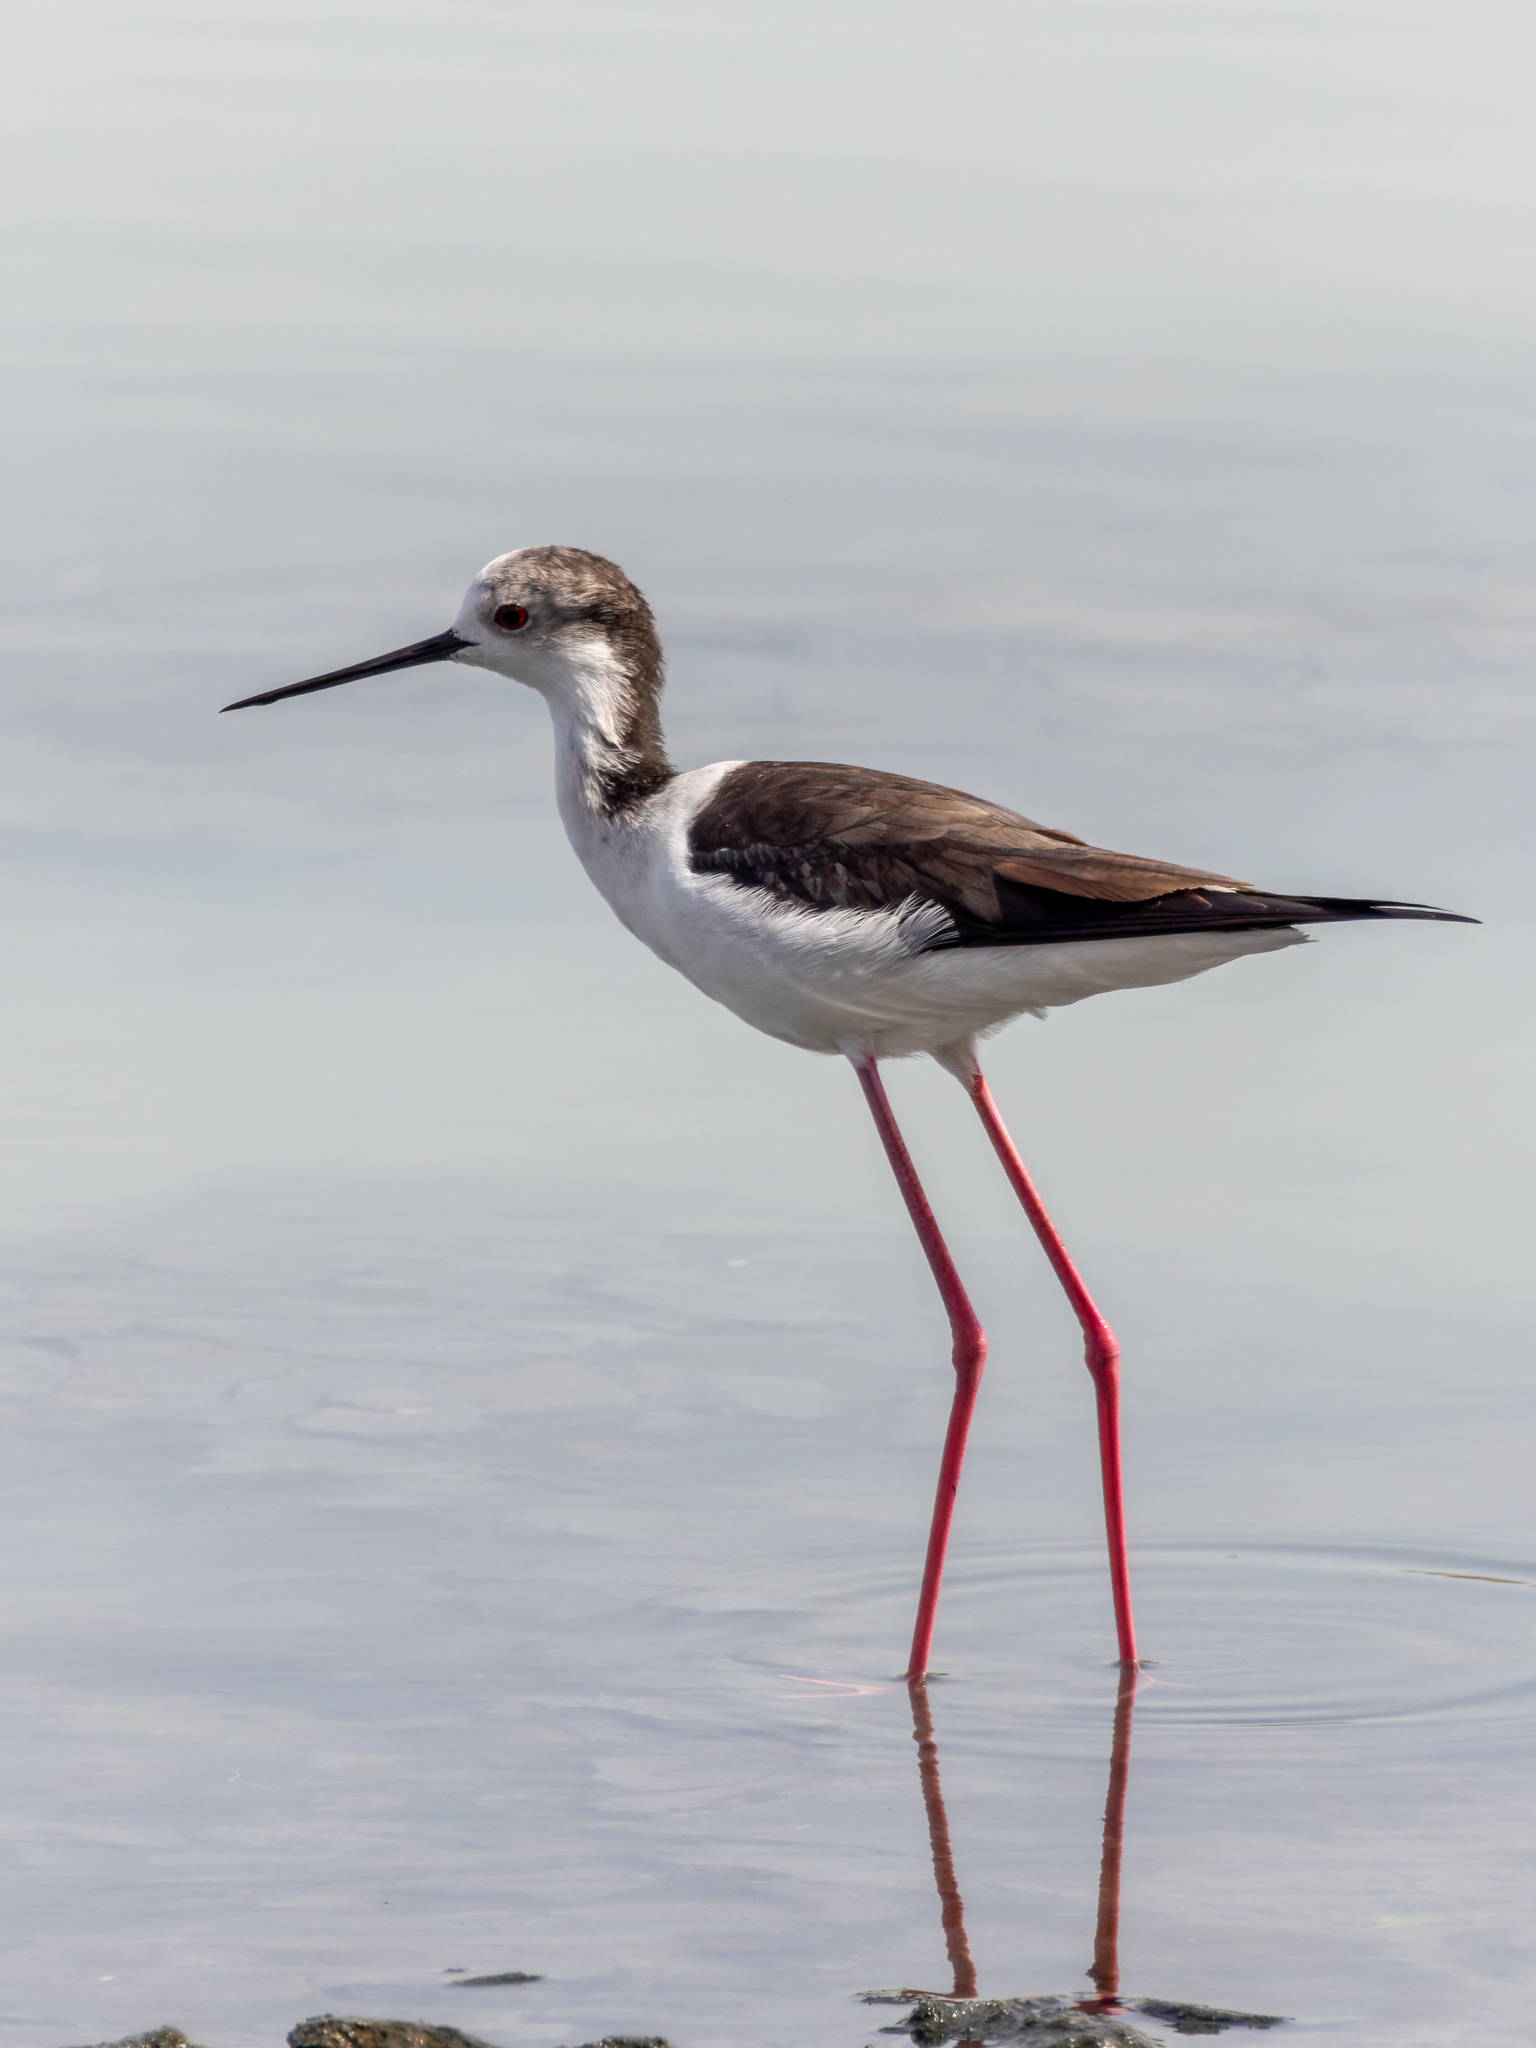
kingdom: Animalia
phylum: Chordata
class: Aves
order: Charadriiformes
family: Recurvirostridae
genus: Himantopus
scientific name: Himantopus himantopus
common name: Black-winged stilt
